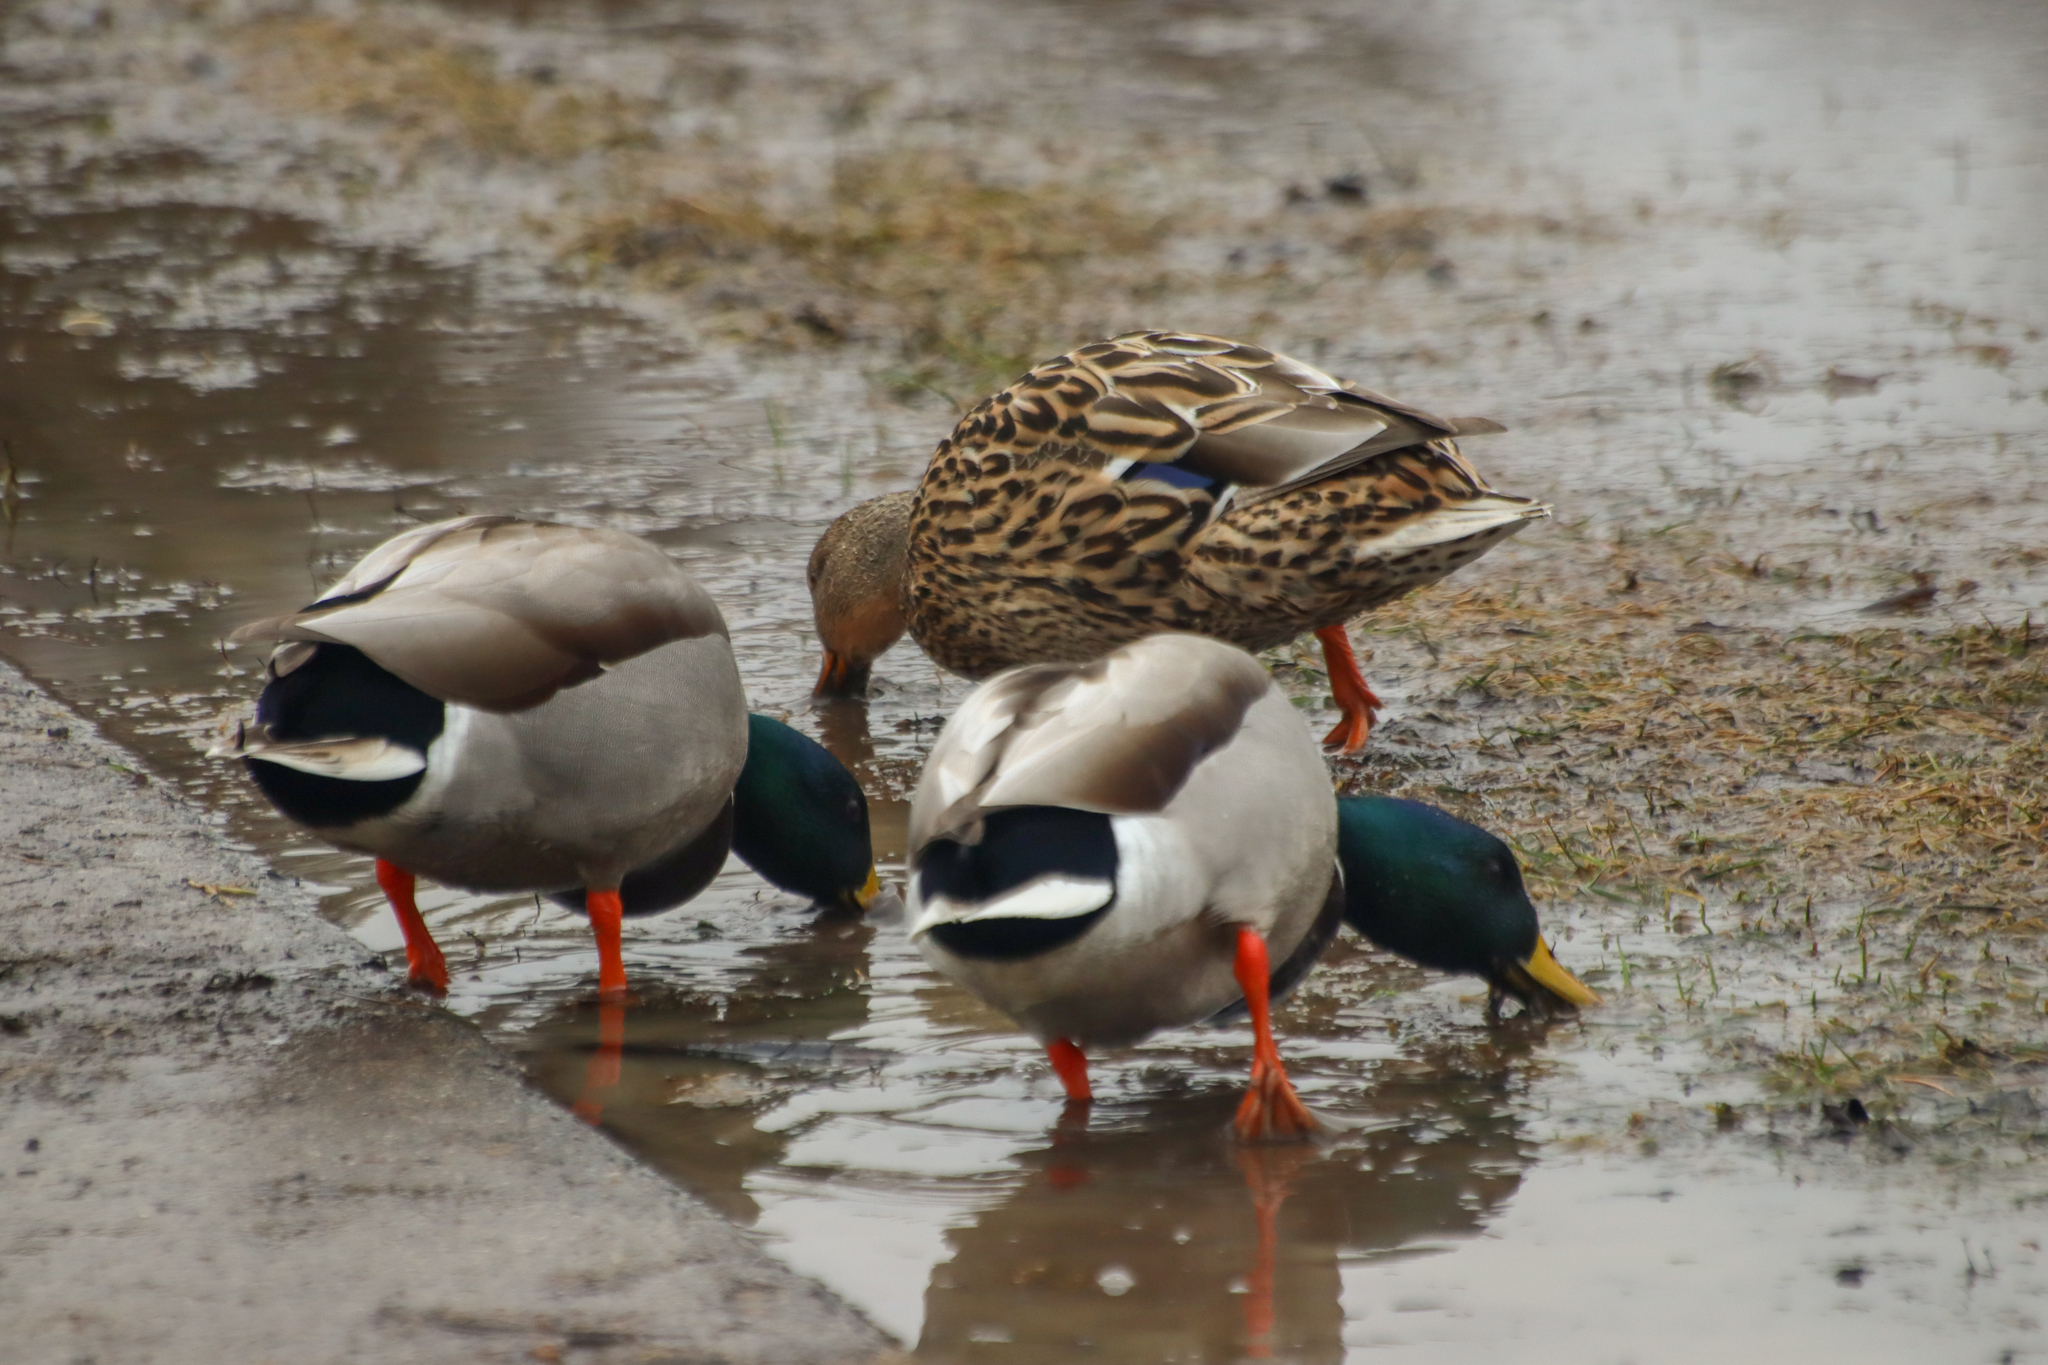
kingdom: Animalia
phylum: Chordata
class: Aves
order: Anseriformes
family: Anatidae
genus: Anas
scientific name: Anas platyrhynchos
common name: Mallard
